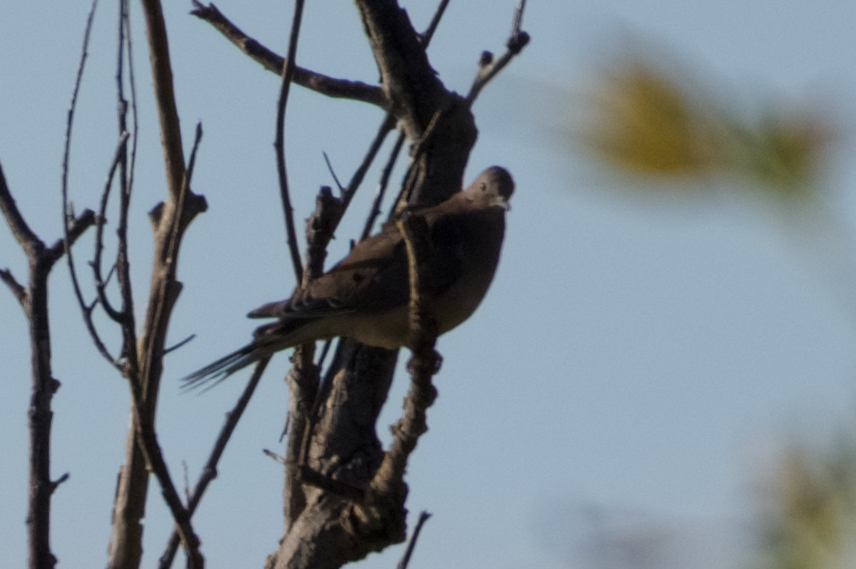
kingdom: Animalia
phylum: Chordata
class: Aves
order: Columbiformes
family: Columbidae
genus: Zenaida
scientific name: Zenaida macroura
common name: Mourning dove
